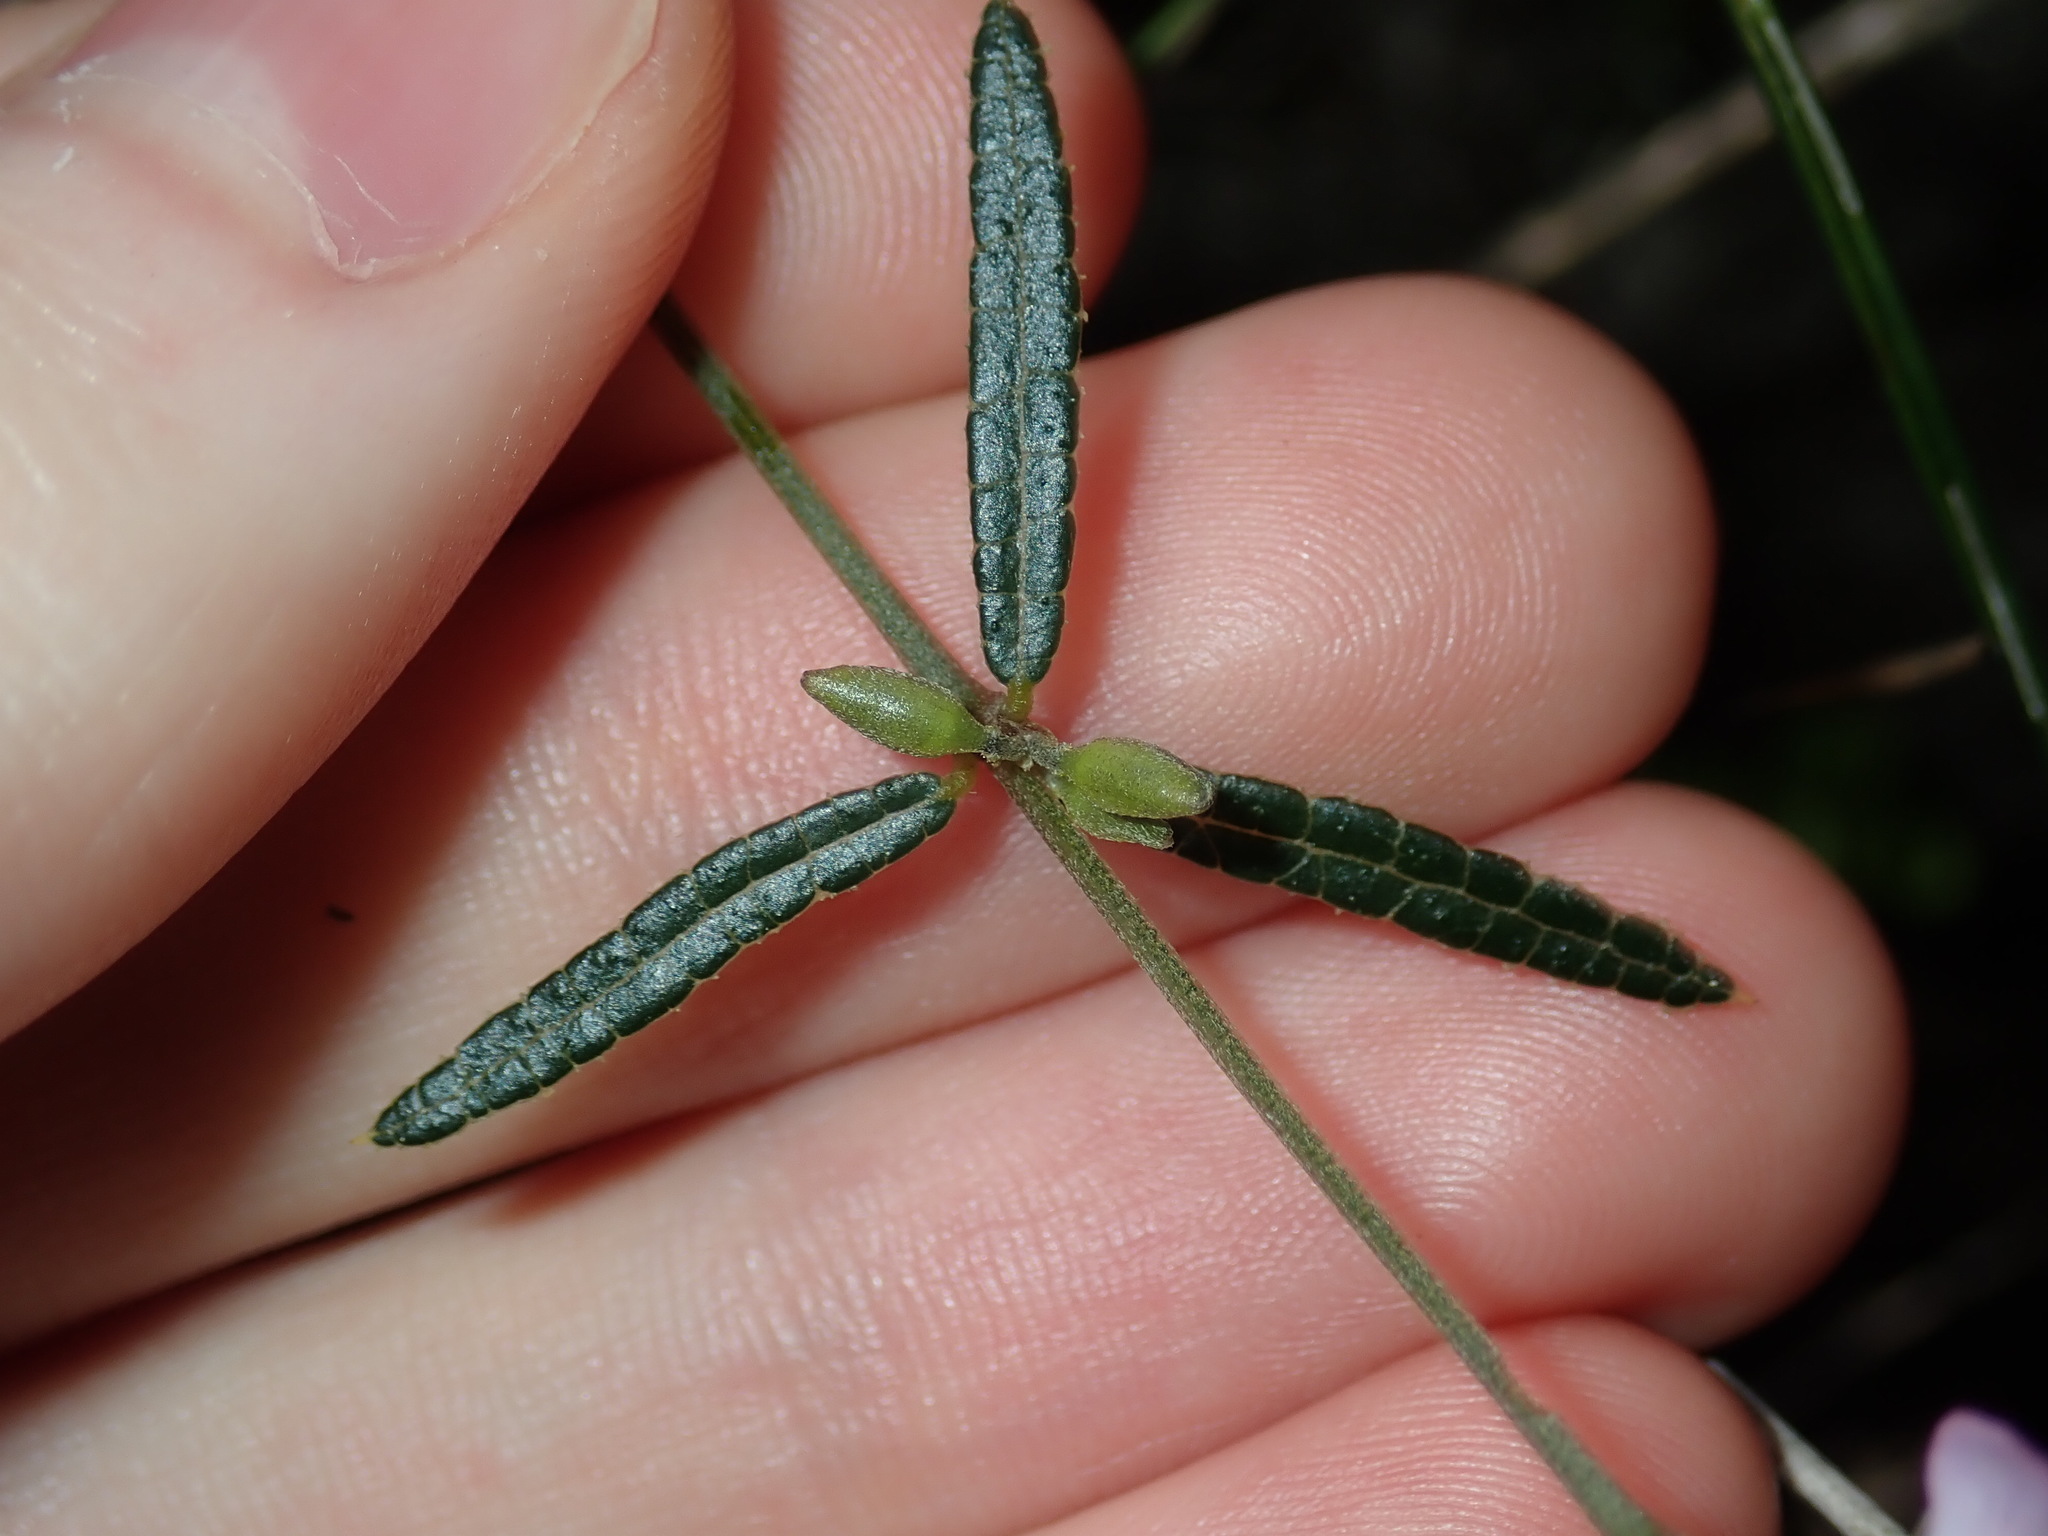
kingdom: Plantae
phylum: Tracheophyta
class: Magnoliopsida
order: Fabales
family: Fabaceae
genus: Mirbelia
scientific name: Mirbelia rubiifolia
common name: Heathy mirbelia
